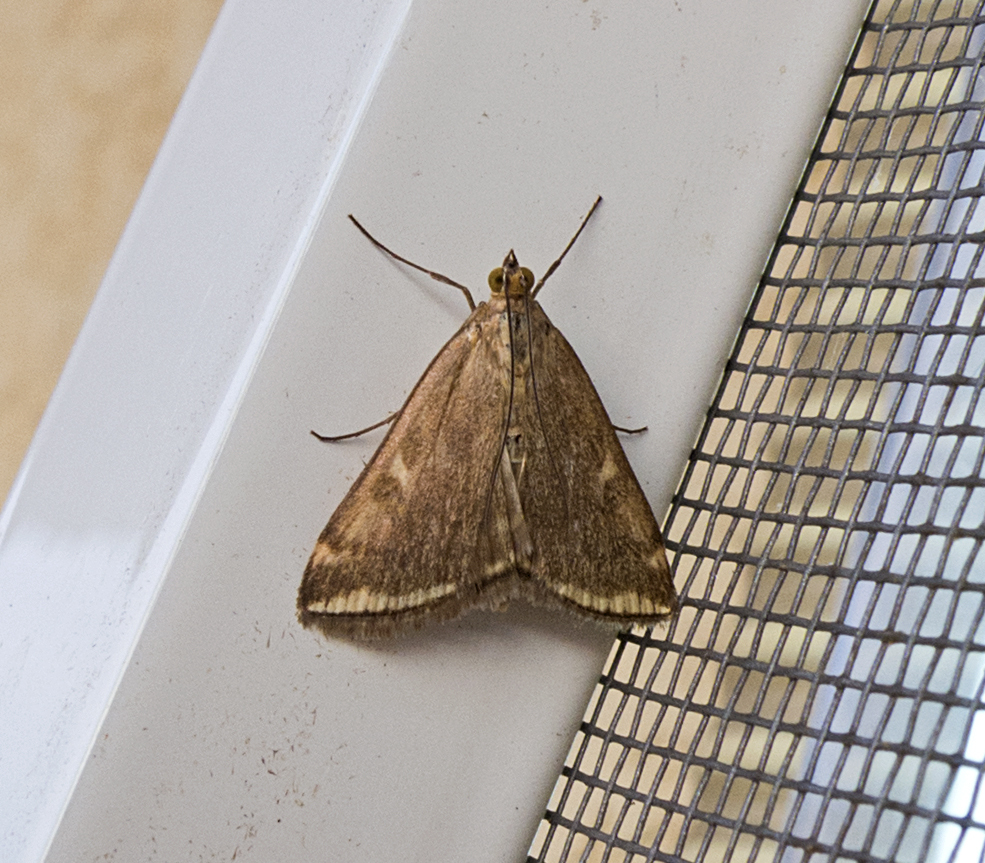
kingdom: Animalia
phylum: Arthropoda
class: Insecta
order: Lepidoptera
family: Crambidae
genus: Loxostege
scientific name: Loxostege sticticalis
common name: Crambid moth
